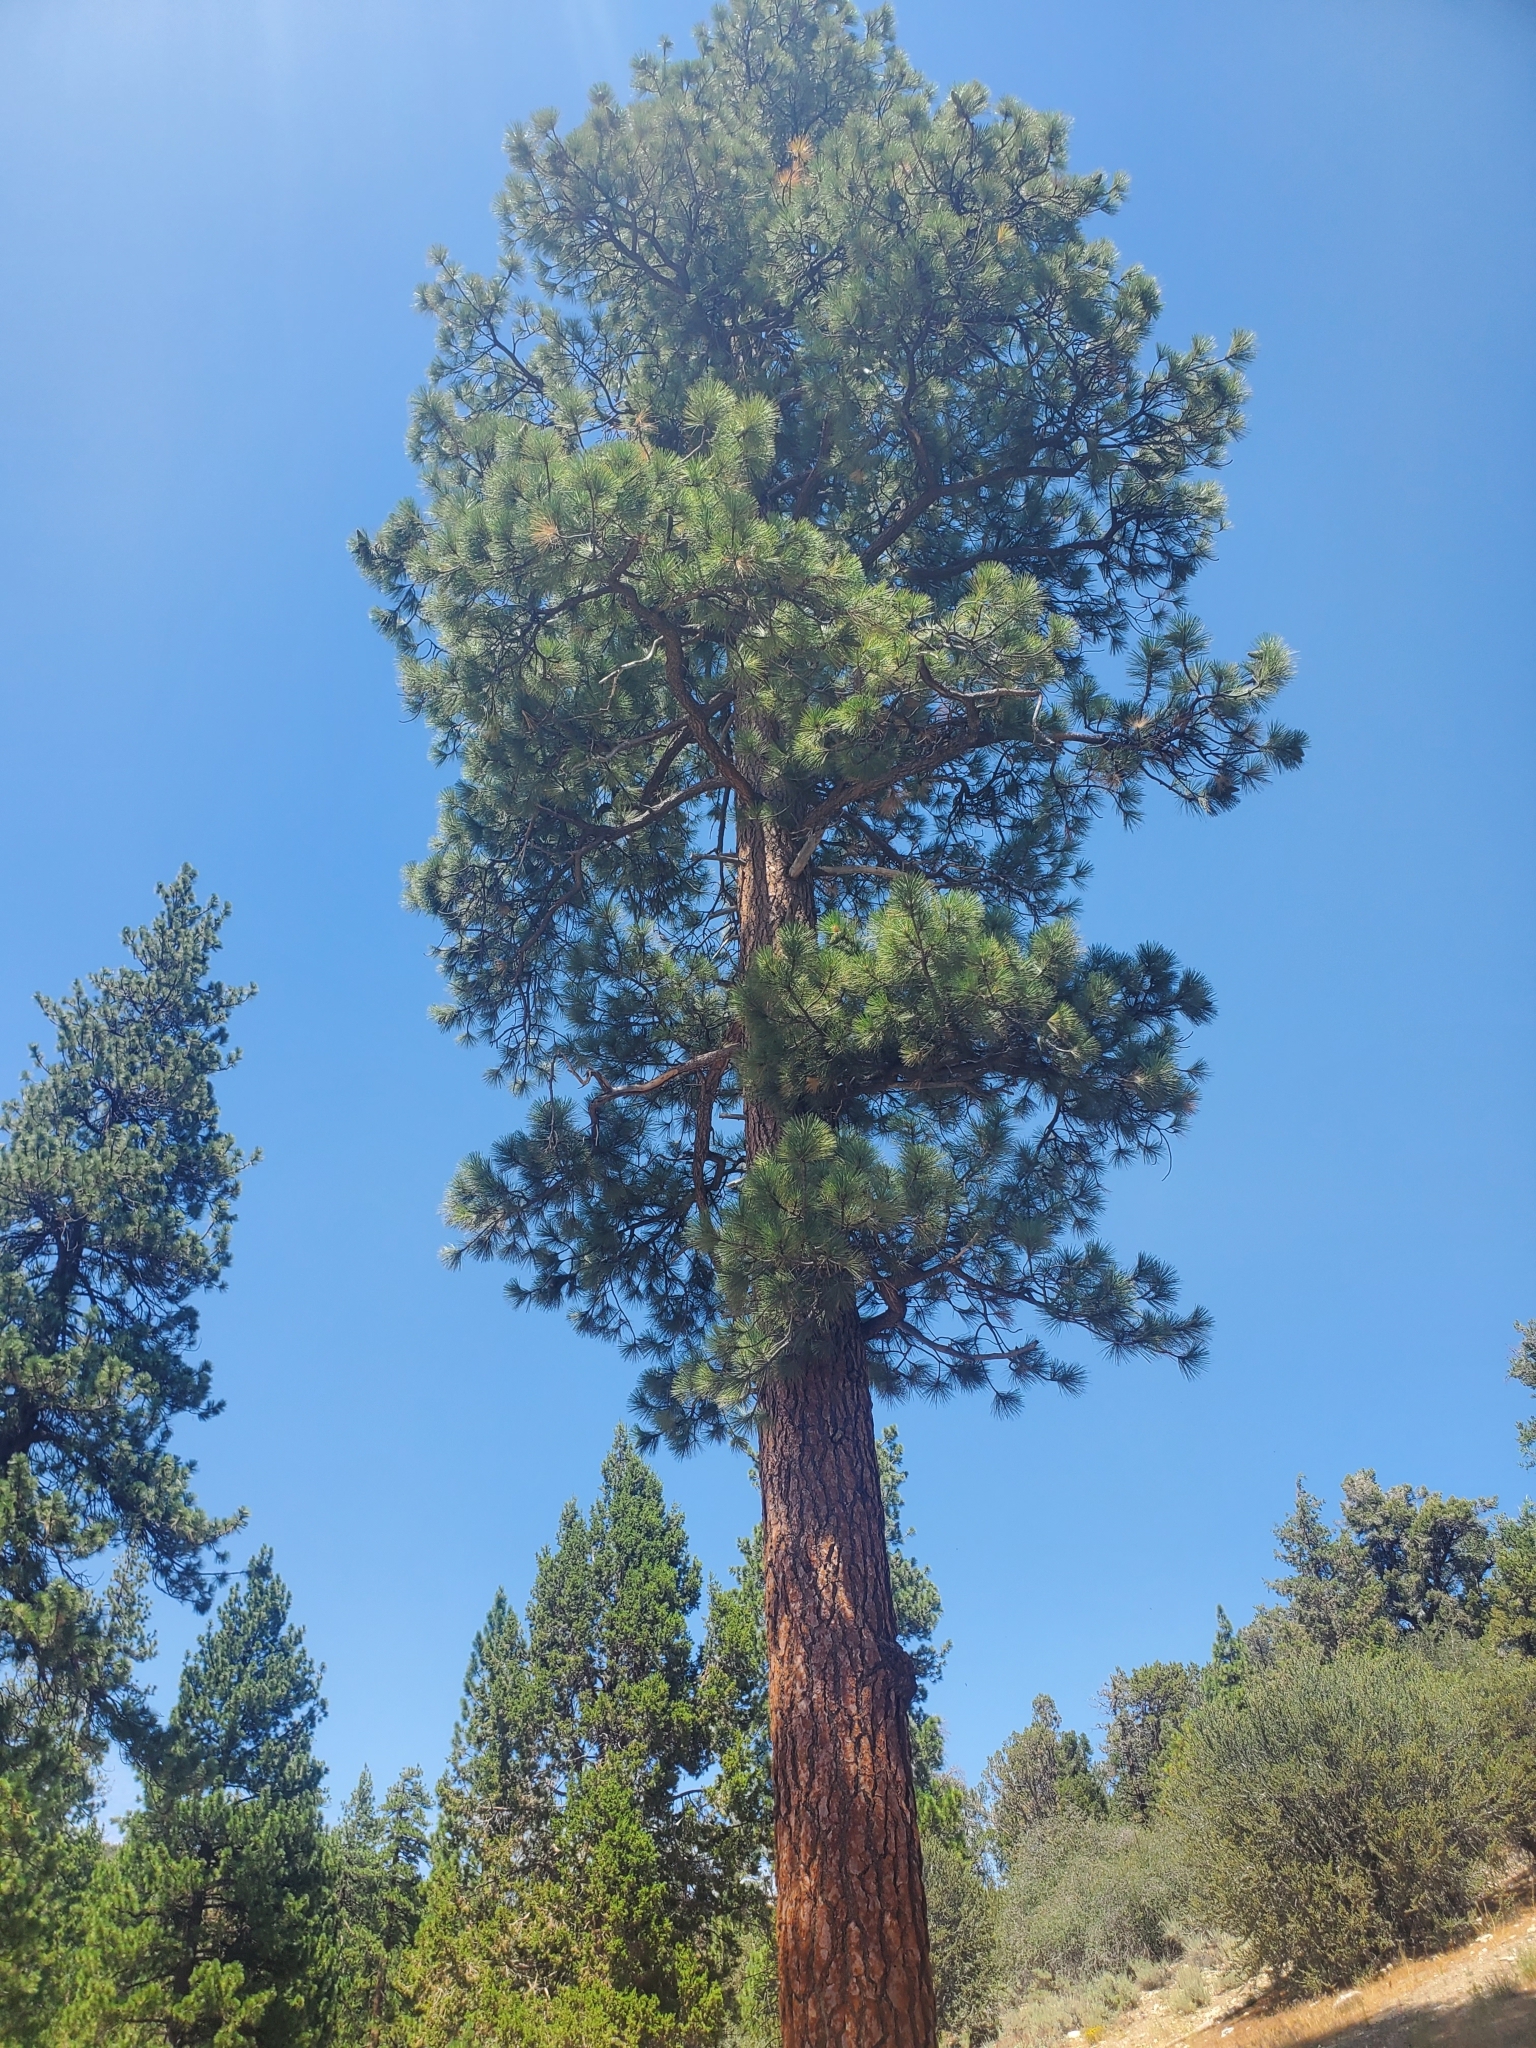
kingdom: Plantae
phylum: Tracheophyta
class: Pinopsida
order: Pinales
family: Pinaceae
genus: Pinus
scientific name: Pinus jeffreyi
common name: Jeffrey pine
